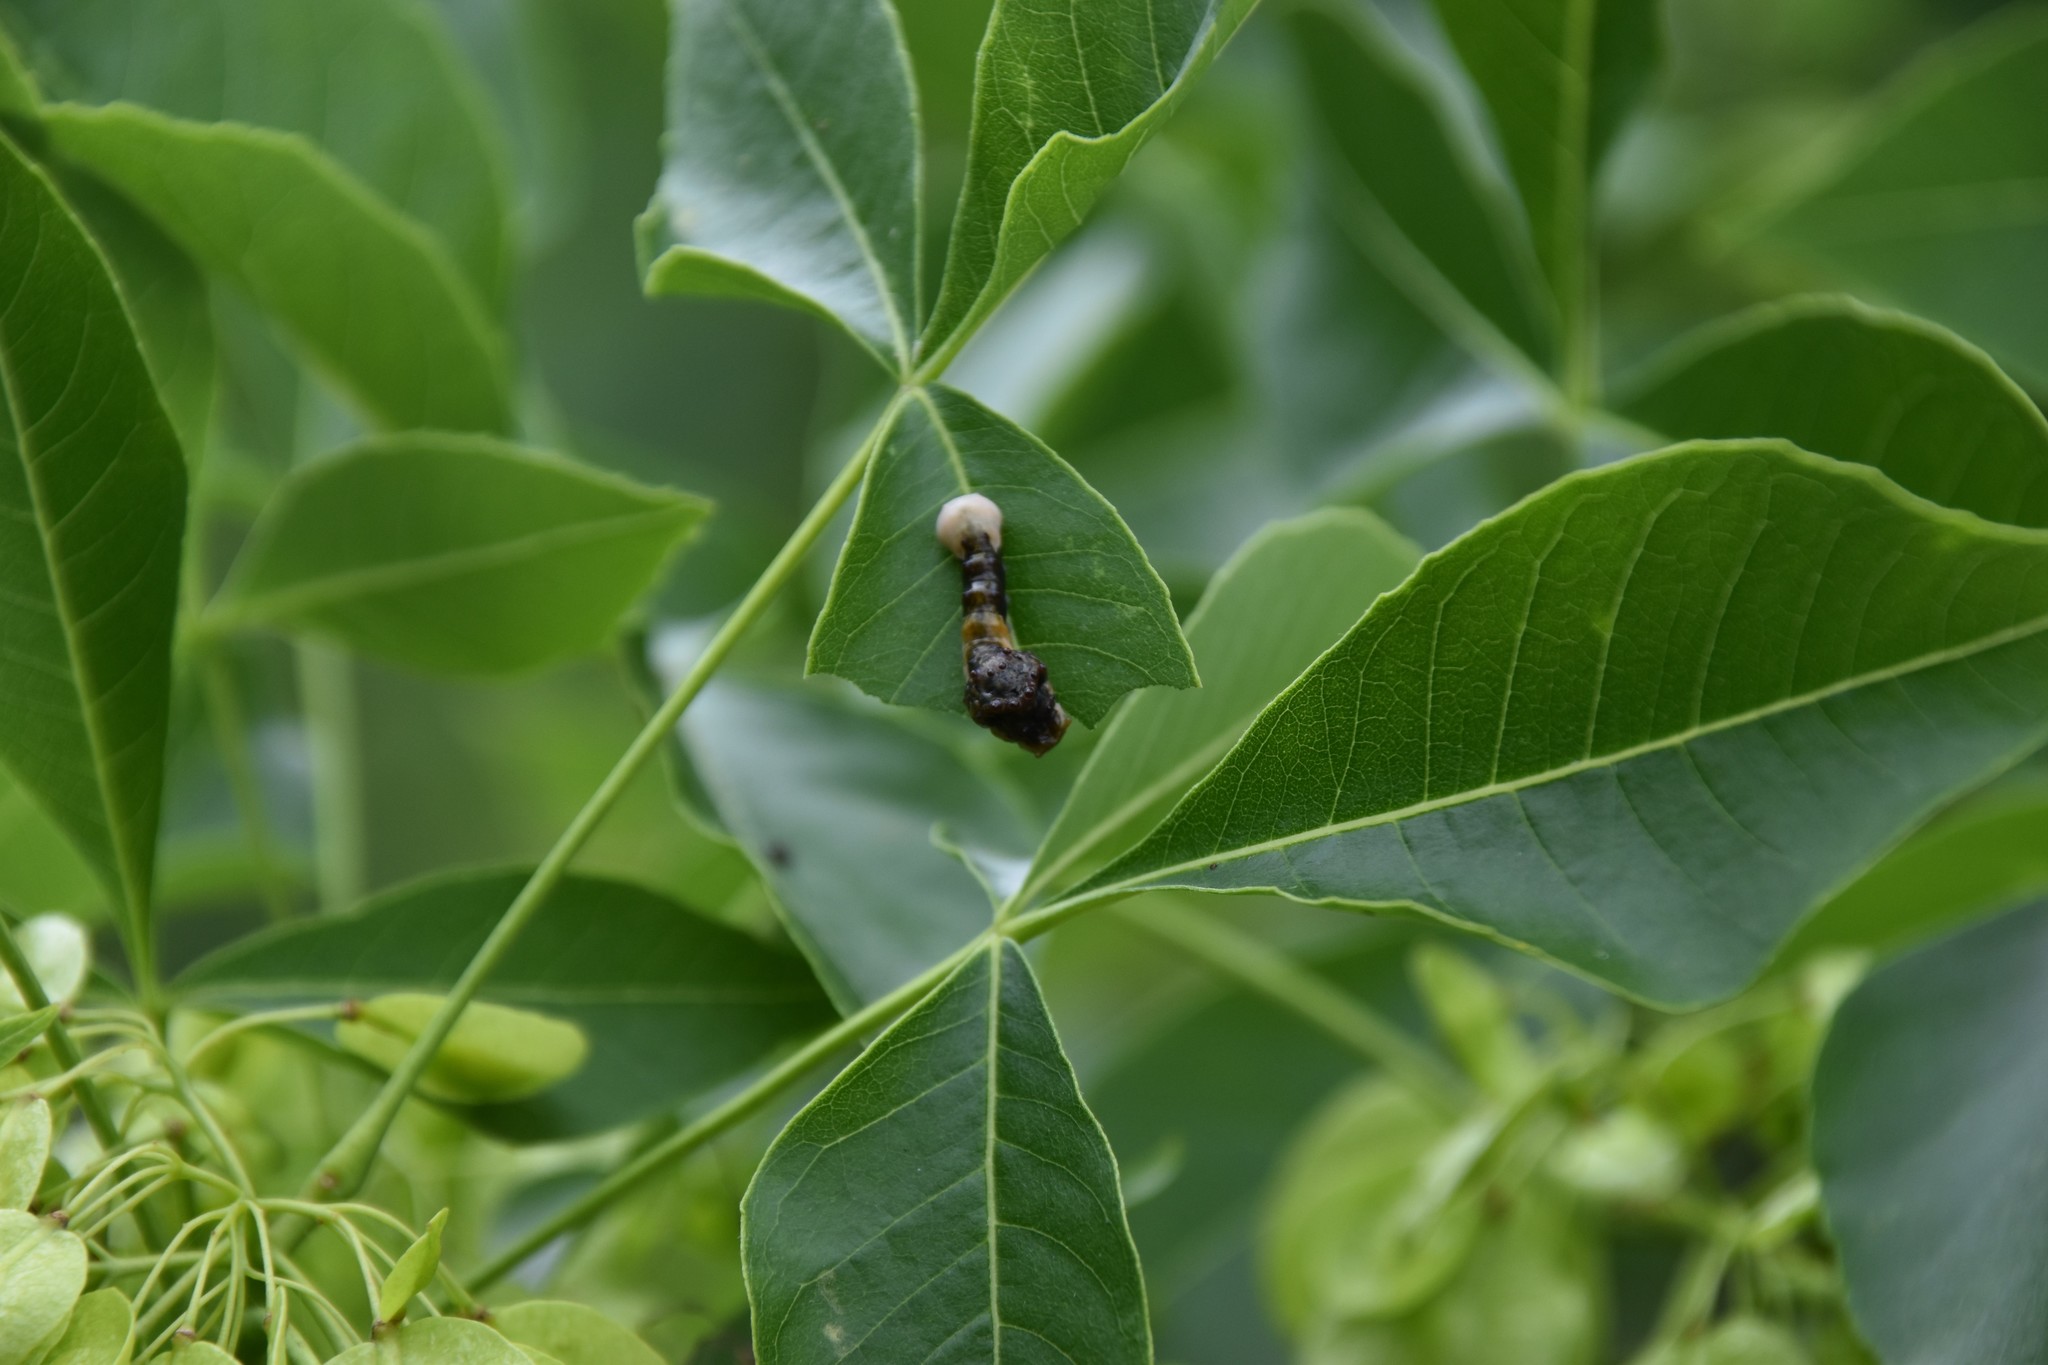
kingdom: Animalia
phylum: Arthropoda
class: Insecta
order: Lepidoptera
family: Papilionidae
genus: Papilio
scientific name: Papilio cresphontes
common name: Giant swallowtail
